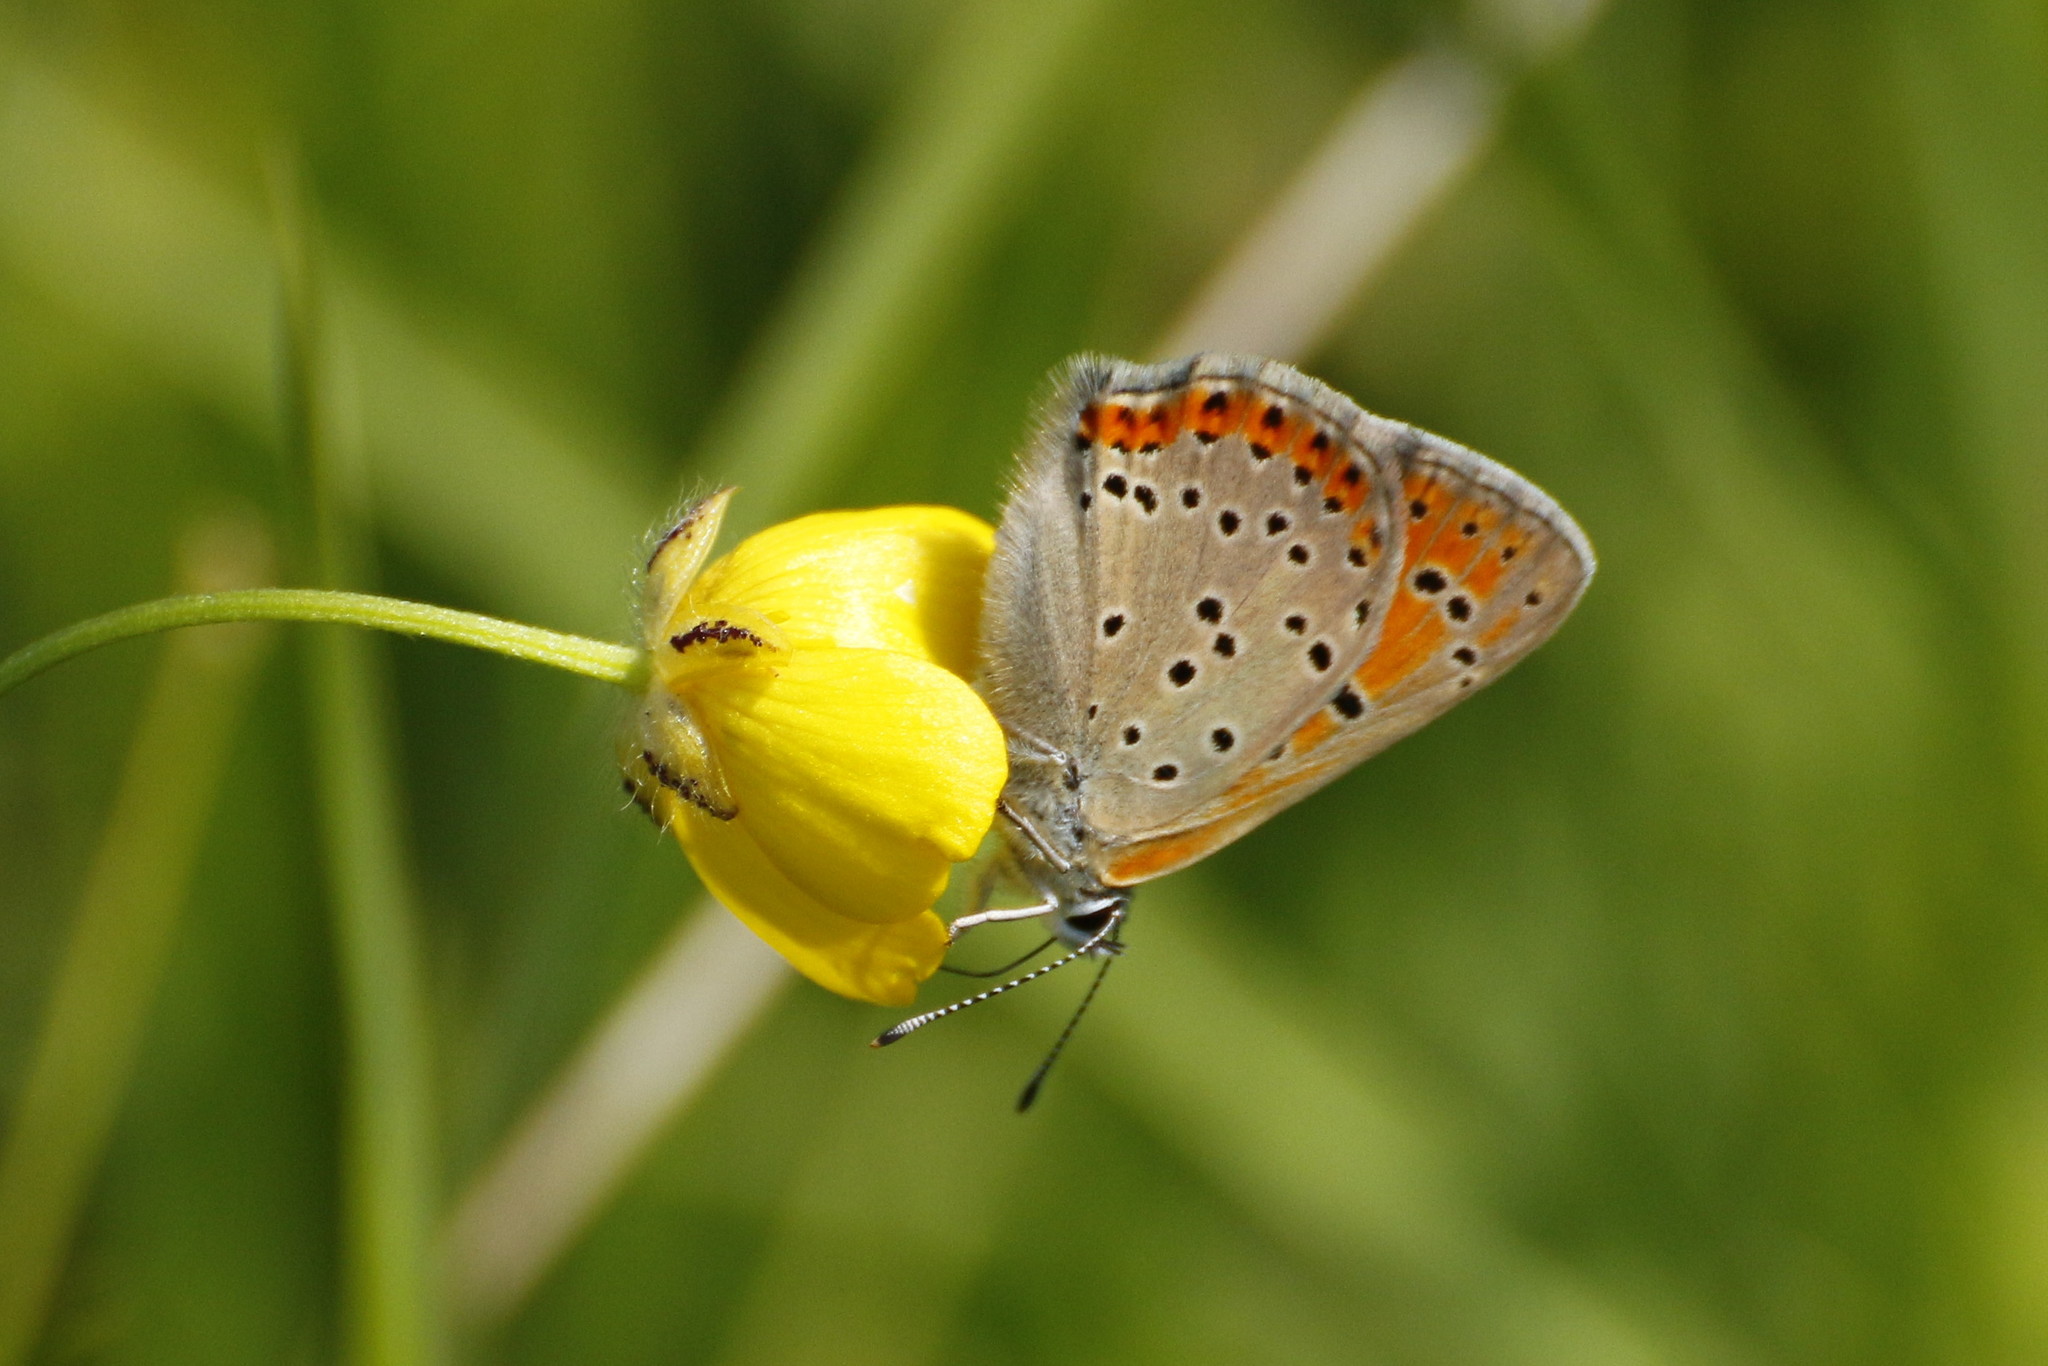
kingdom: Animalia
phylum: Arthropoda
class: Insecta
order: Lepidoptera
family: Lycaenidae
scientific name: Lycaenidae
